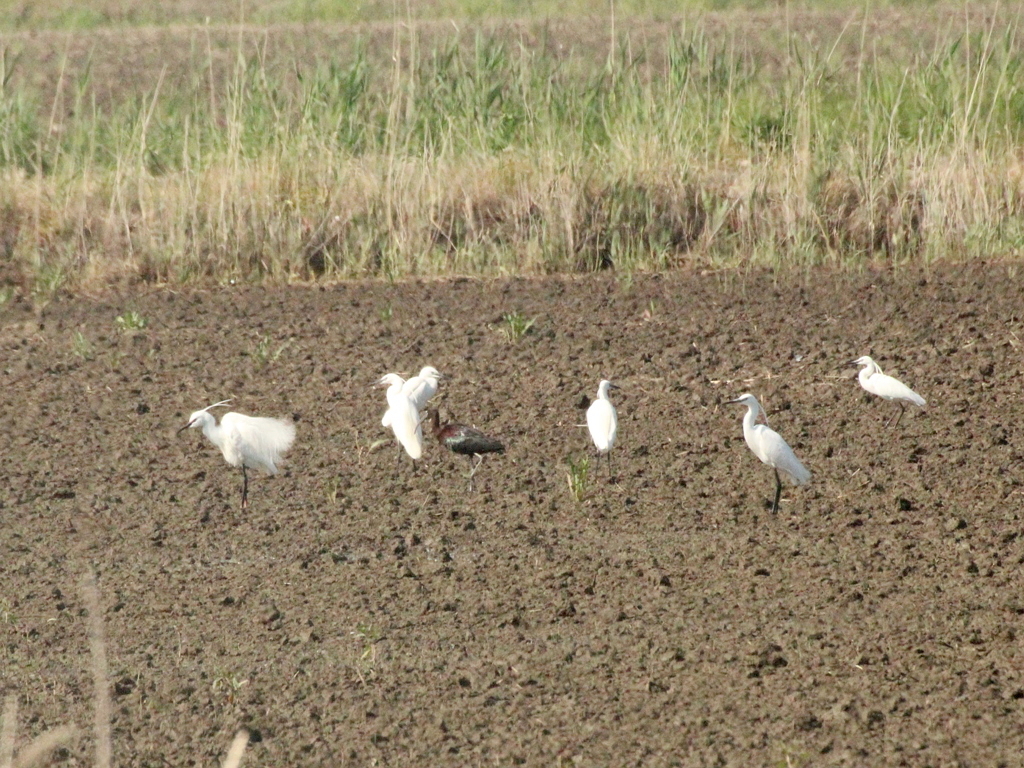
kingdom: Animalia
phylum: Chordata
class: Aves
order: Pelecaniformes
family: Ardeidae
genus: Egretta
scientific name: Egretta garzetta
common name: Little egret
